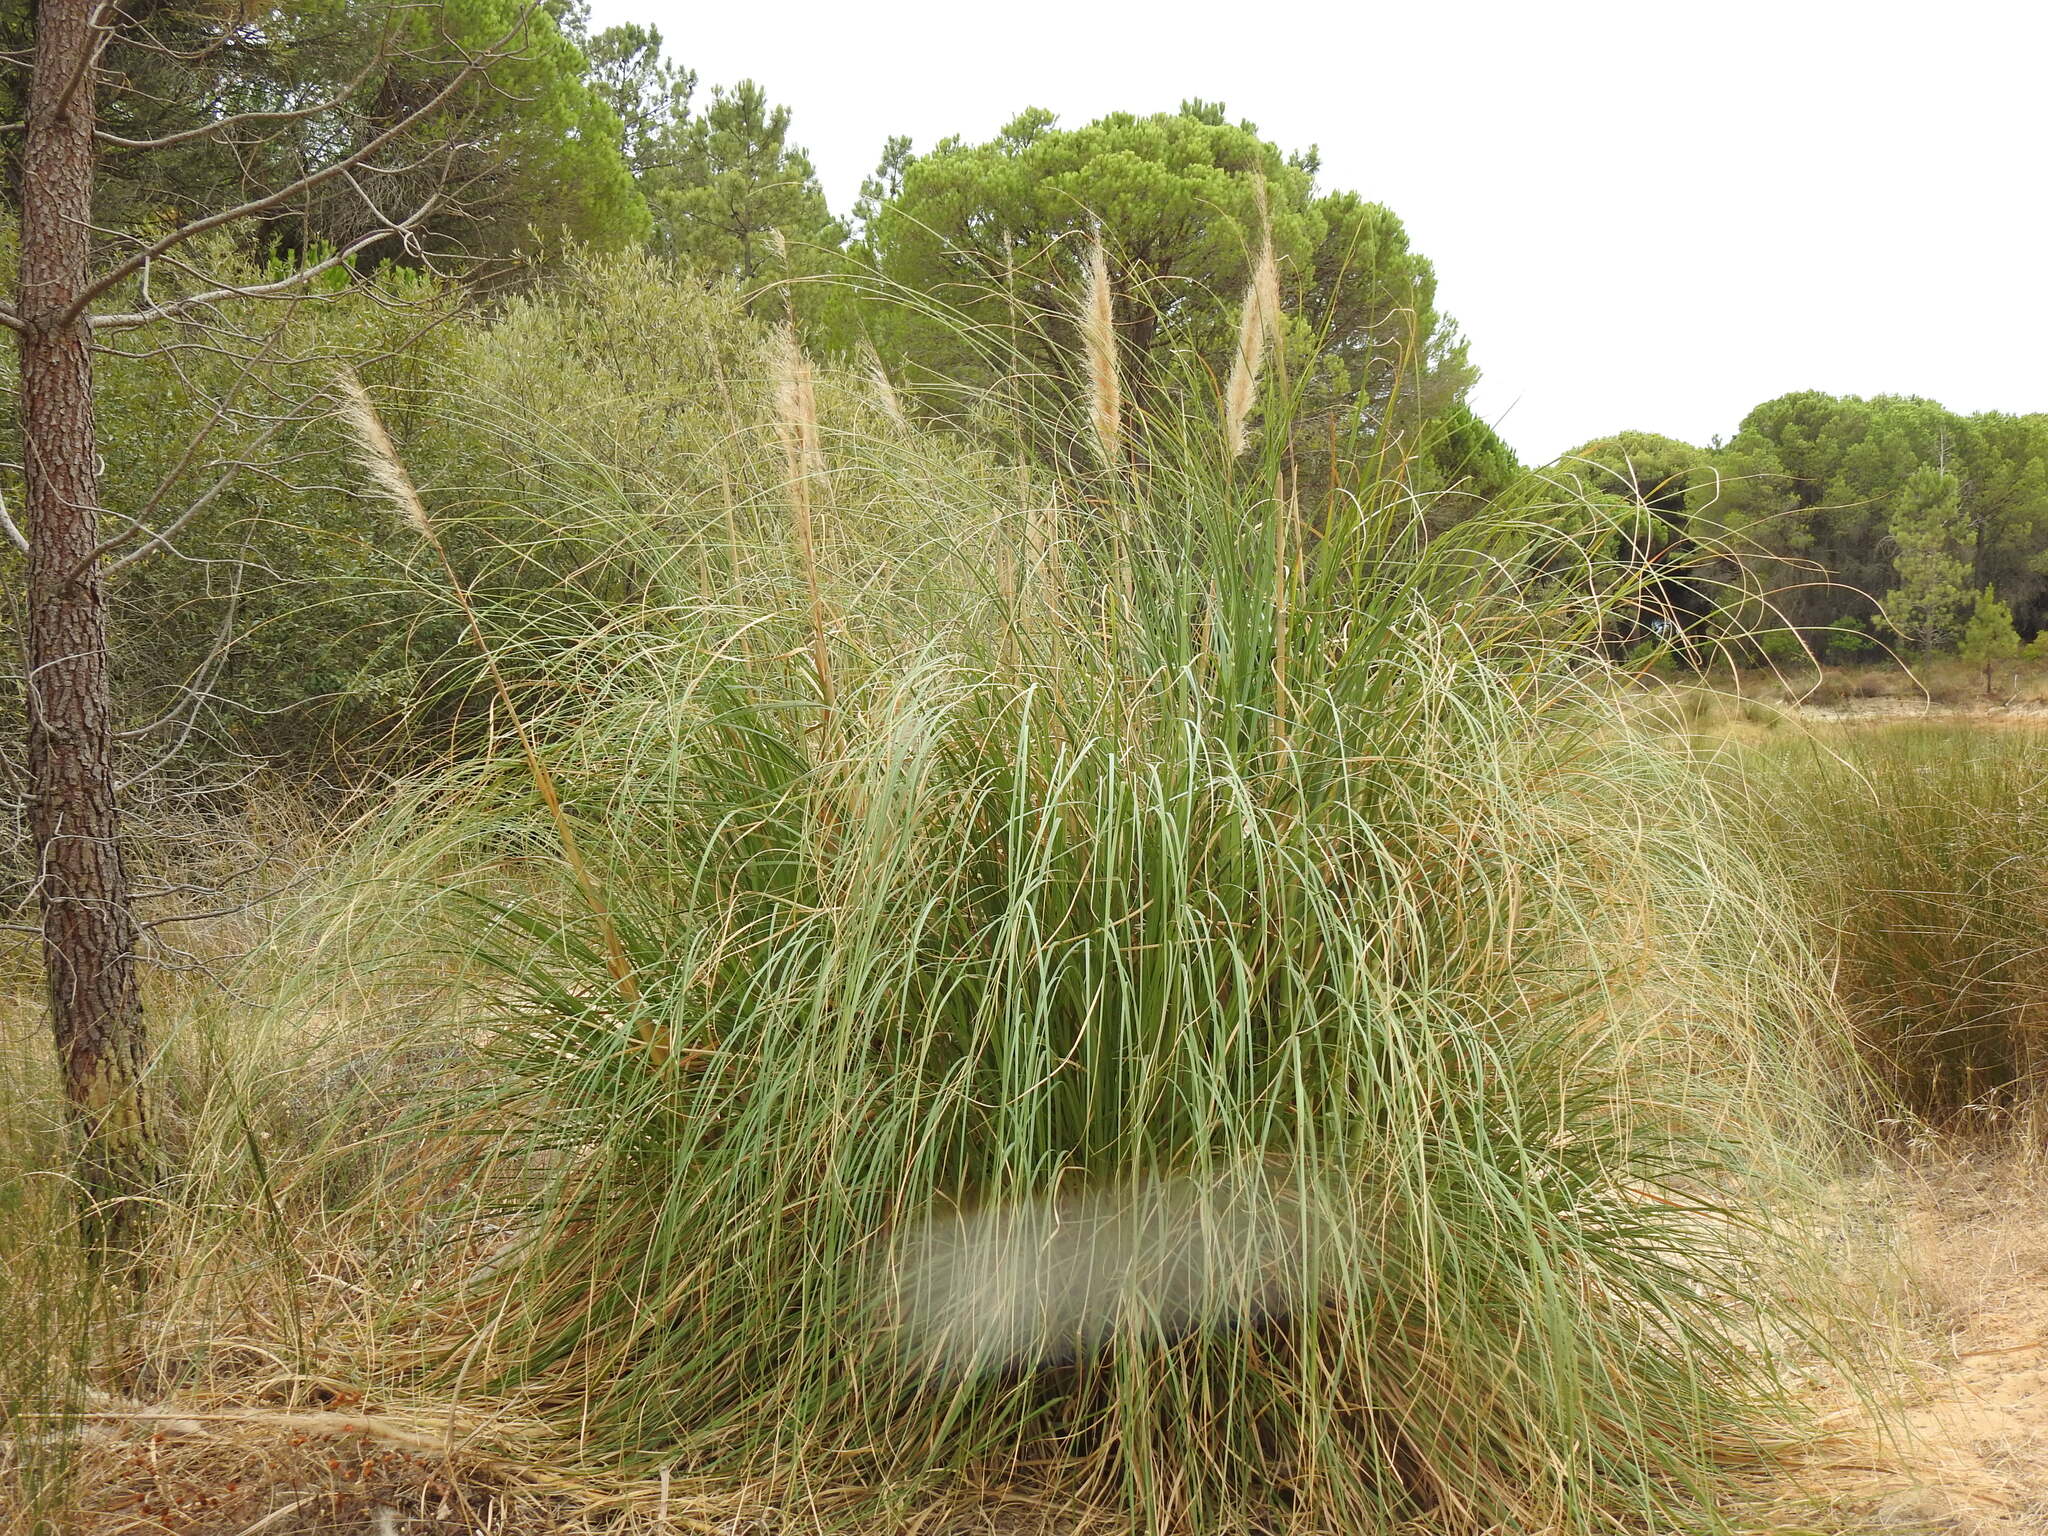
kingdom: Plantae
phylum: Tracheophyta
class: Liliopsida
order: Poales
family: Poaceae
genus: Cortaderia
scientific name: Cortaderia selloana
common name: Uruguayan pampas grass
